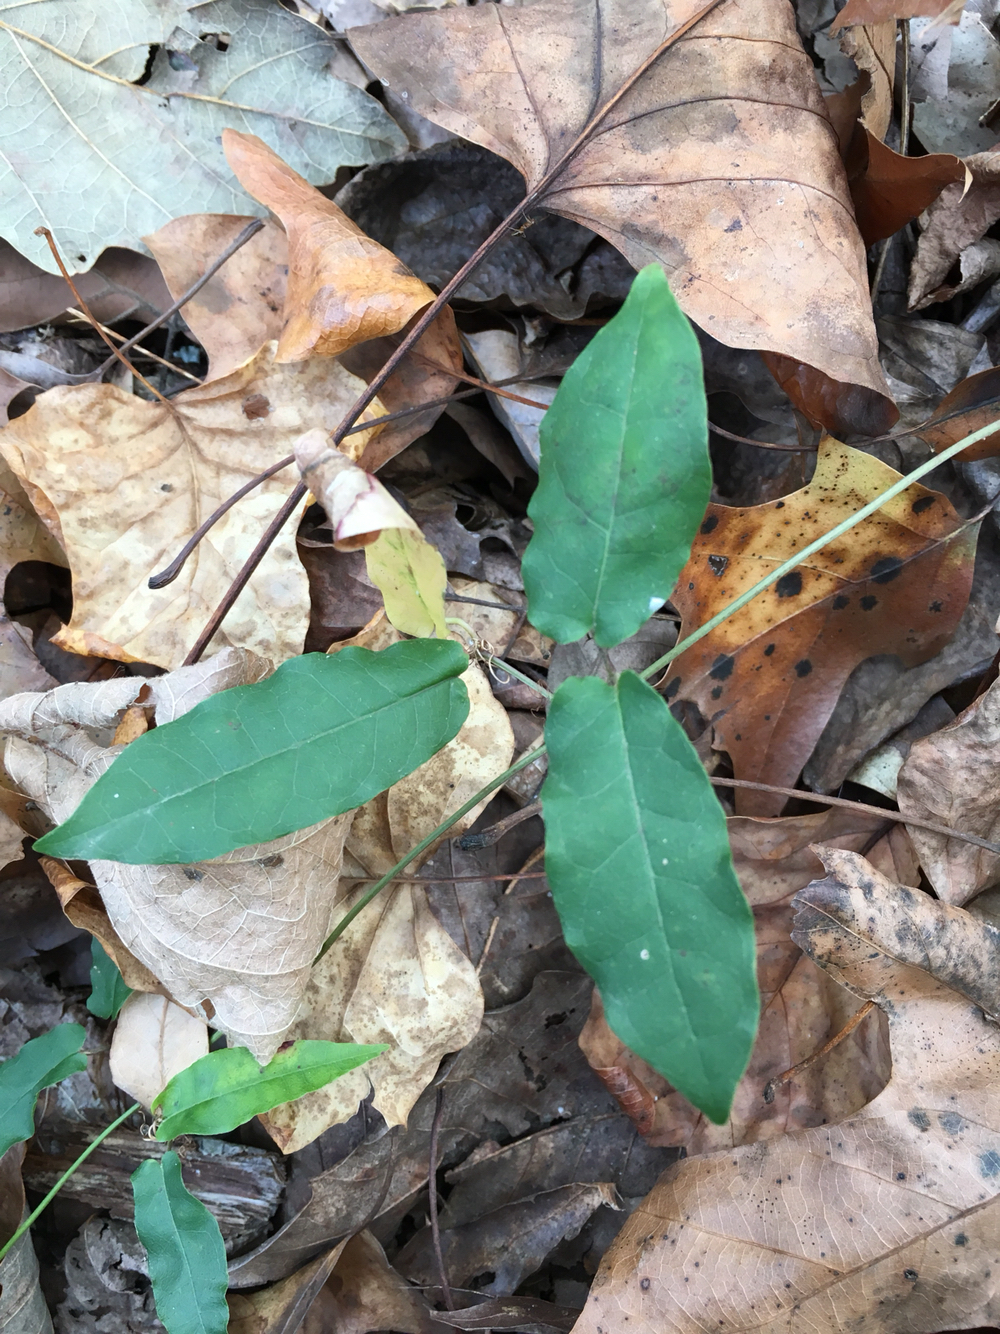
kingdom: Plantae
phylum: Tracheophyta
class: Magnoliopsida
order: Lamiales
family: Bignoniaceae
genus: Bignonia
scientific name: Bignonia capreolata
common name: Crossvine
